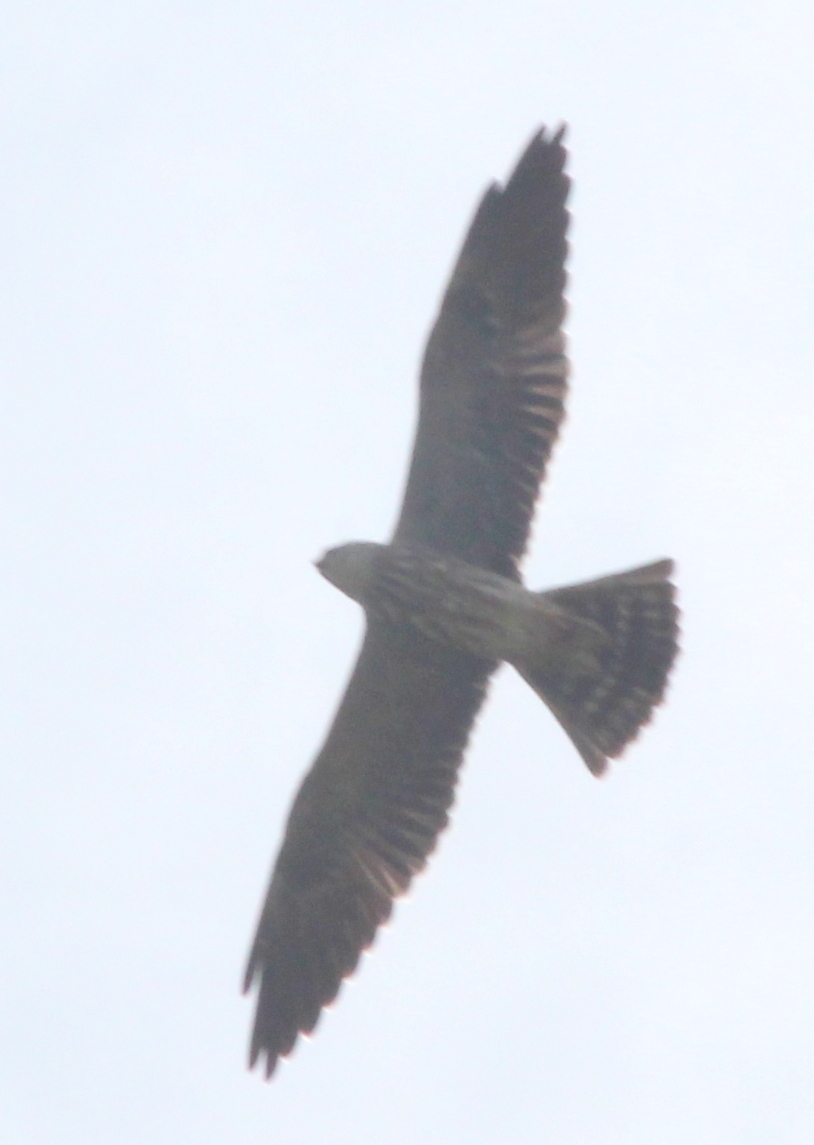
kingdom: Animalia
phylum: Chordata
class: Aves
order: Accipitriformes
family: Accipitridae
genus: Ictinia
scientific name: Ictinia mississippiensis
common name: Mississippi kite
